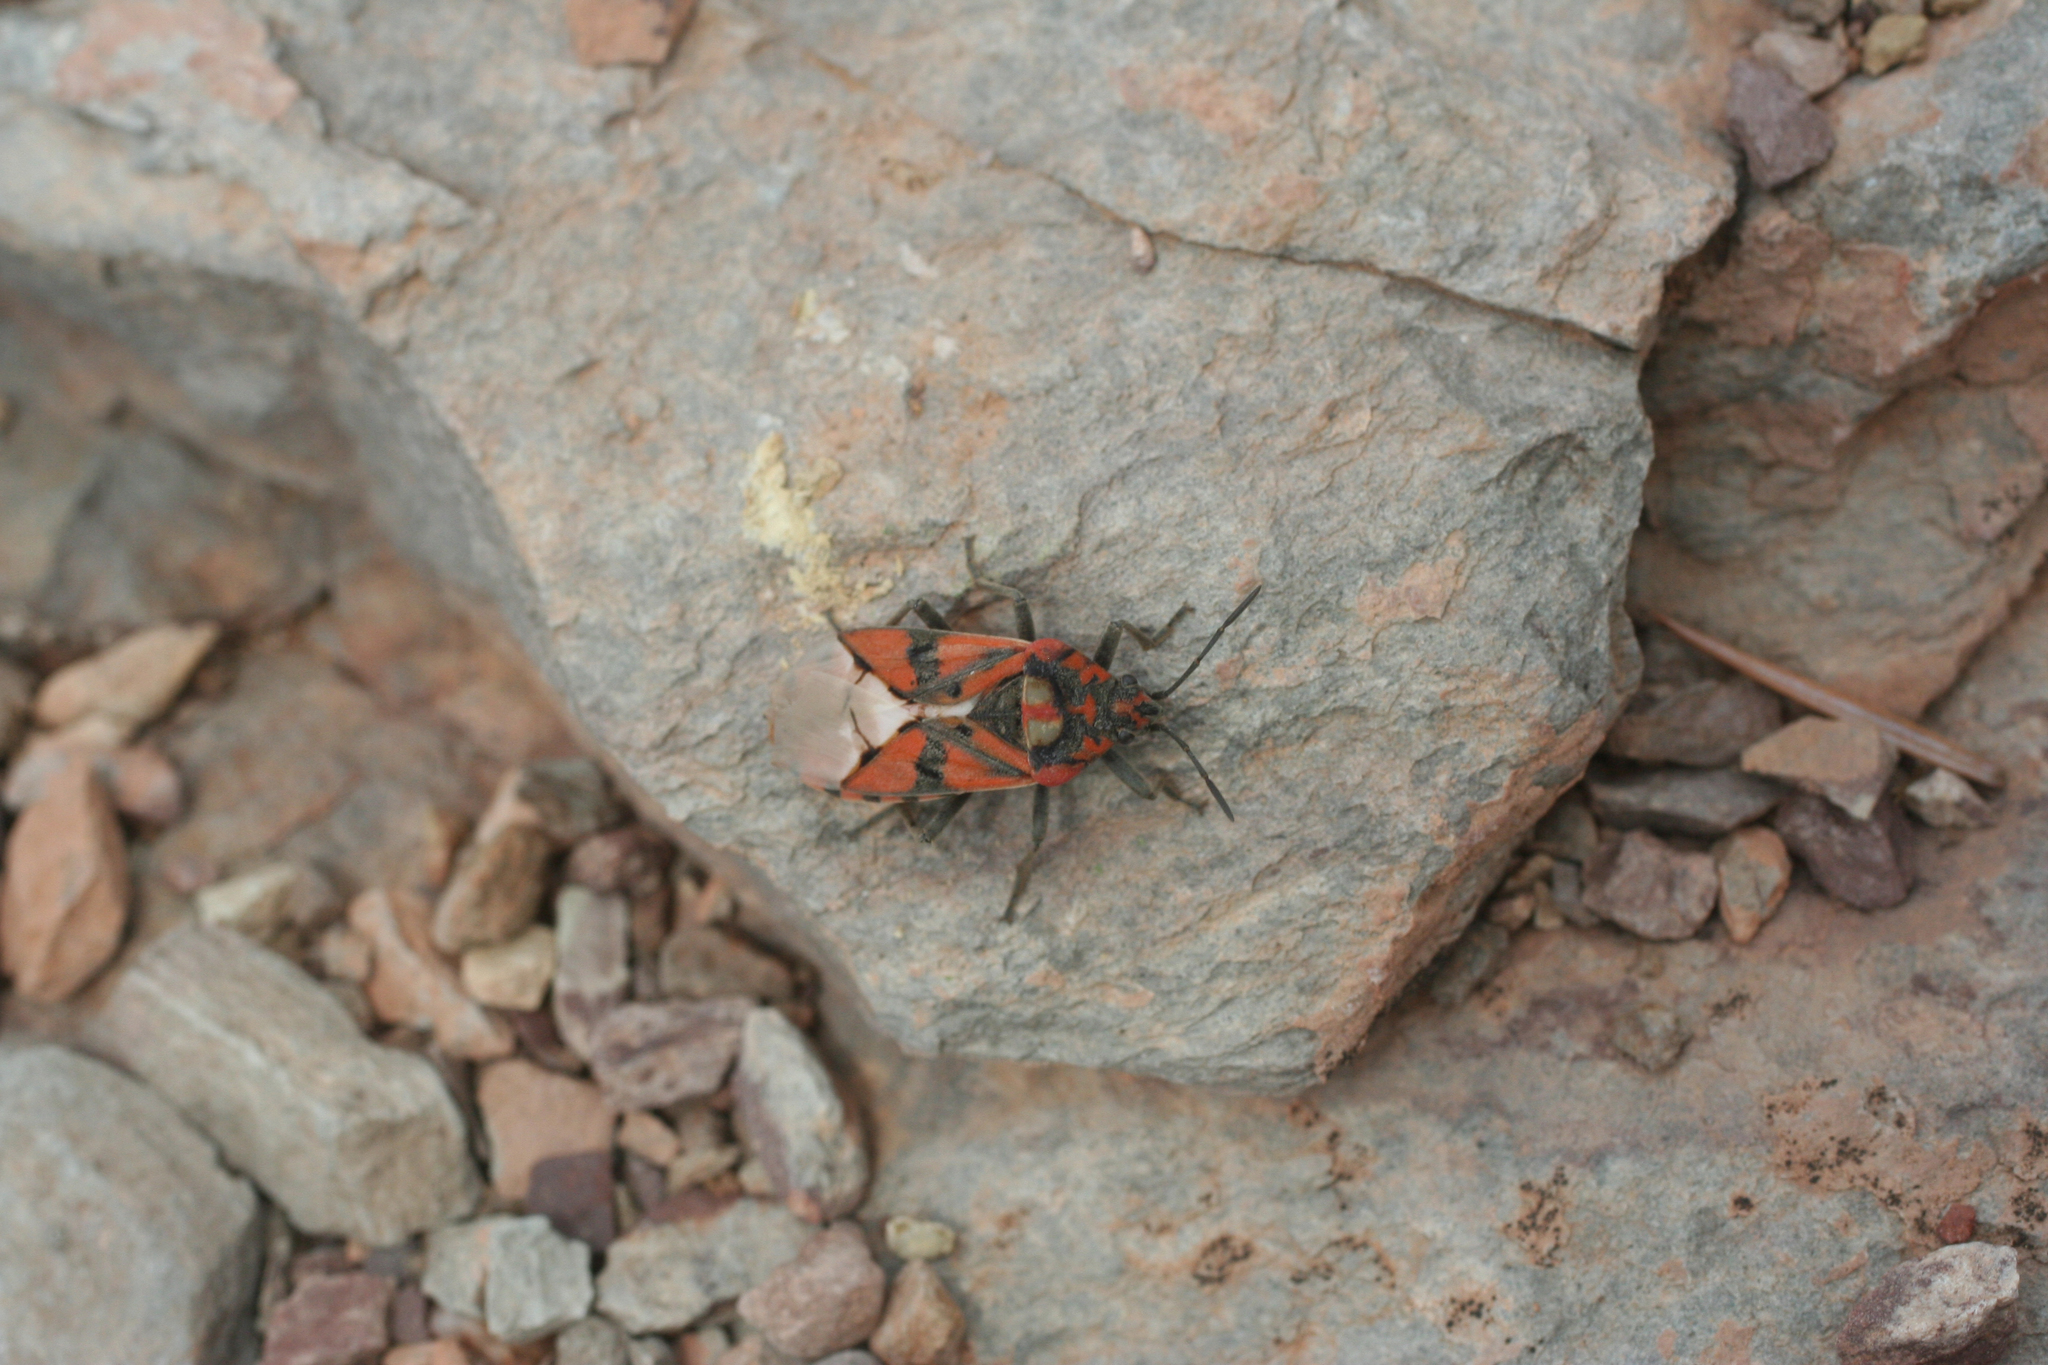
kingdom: Animalia
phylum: Arthropoda
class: Insecta
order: Hemiptera
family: Lygaeidae
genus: Spilostethus
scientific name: Spilostethus pandurus
